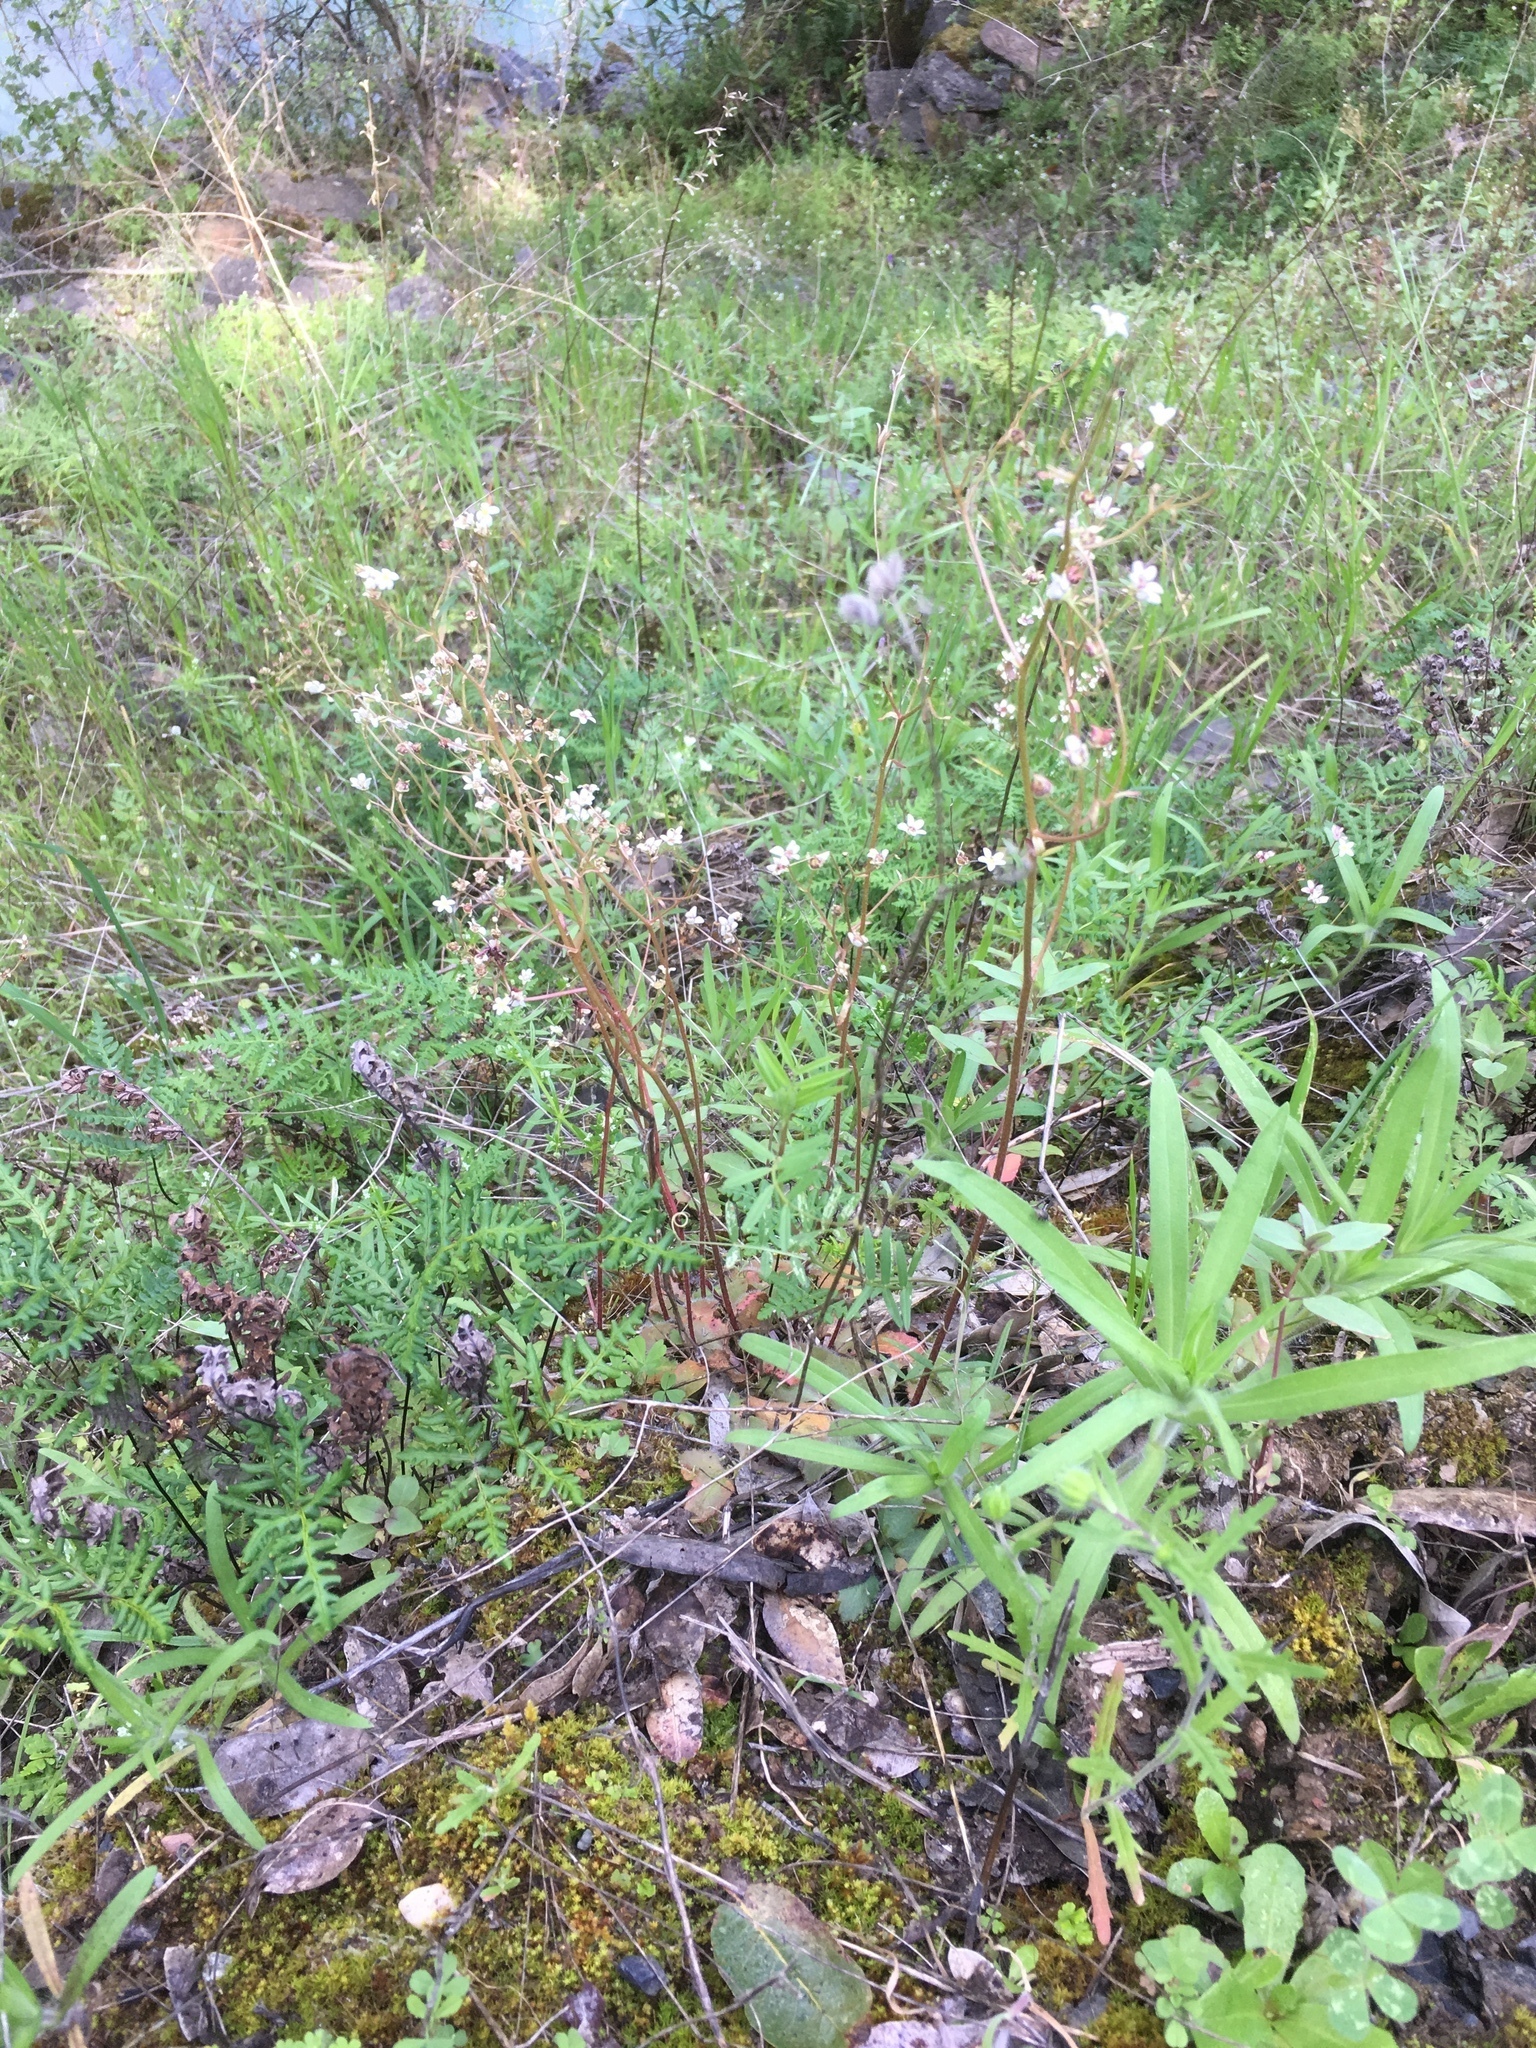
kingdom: Plantae
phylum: Tracheophyta
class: Magnoliopsida
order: Saxifragales
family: Saxifragaceae
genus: Micranthes
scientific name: Micranthes californica
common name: California saxifrage
